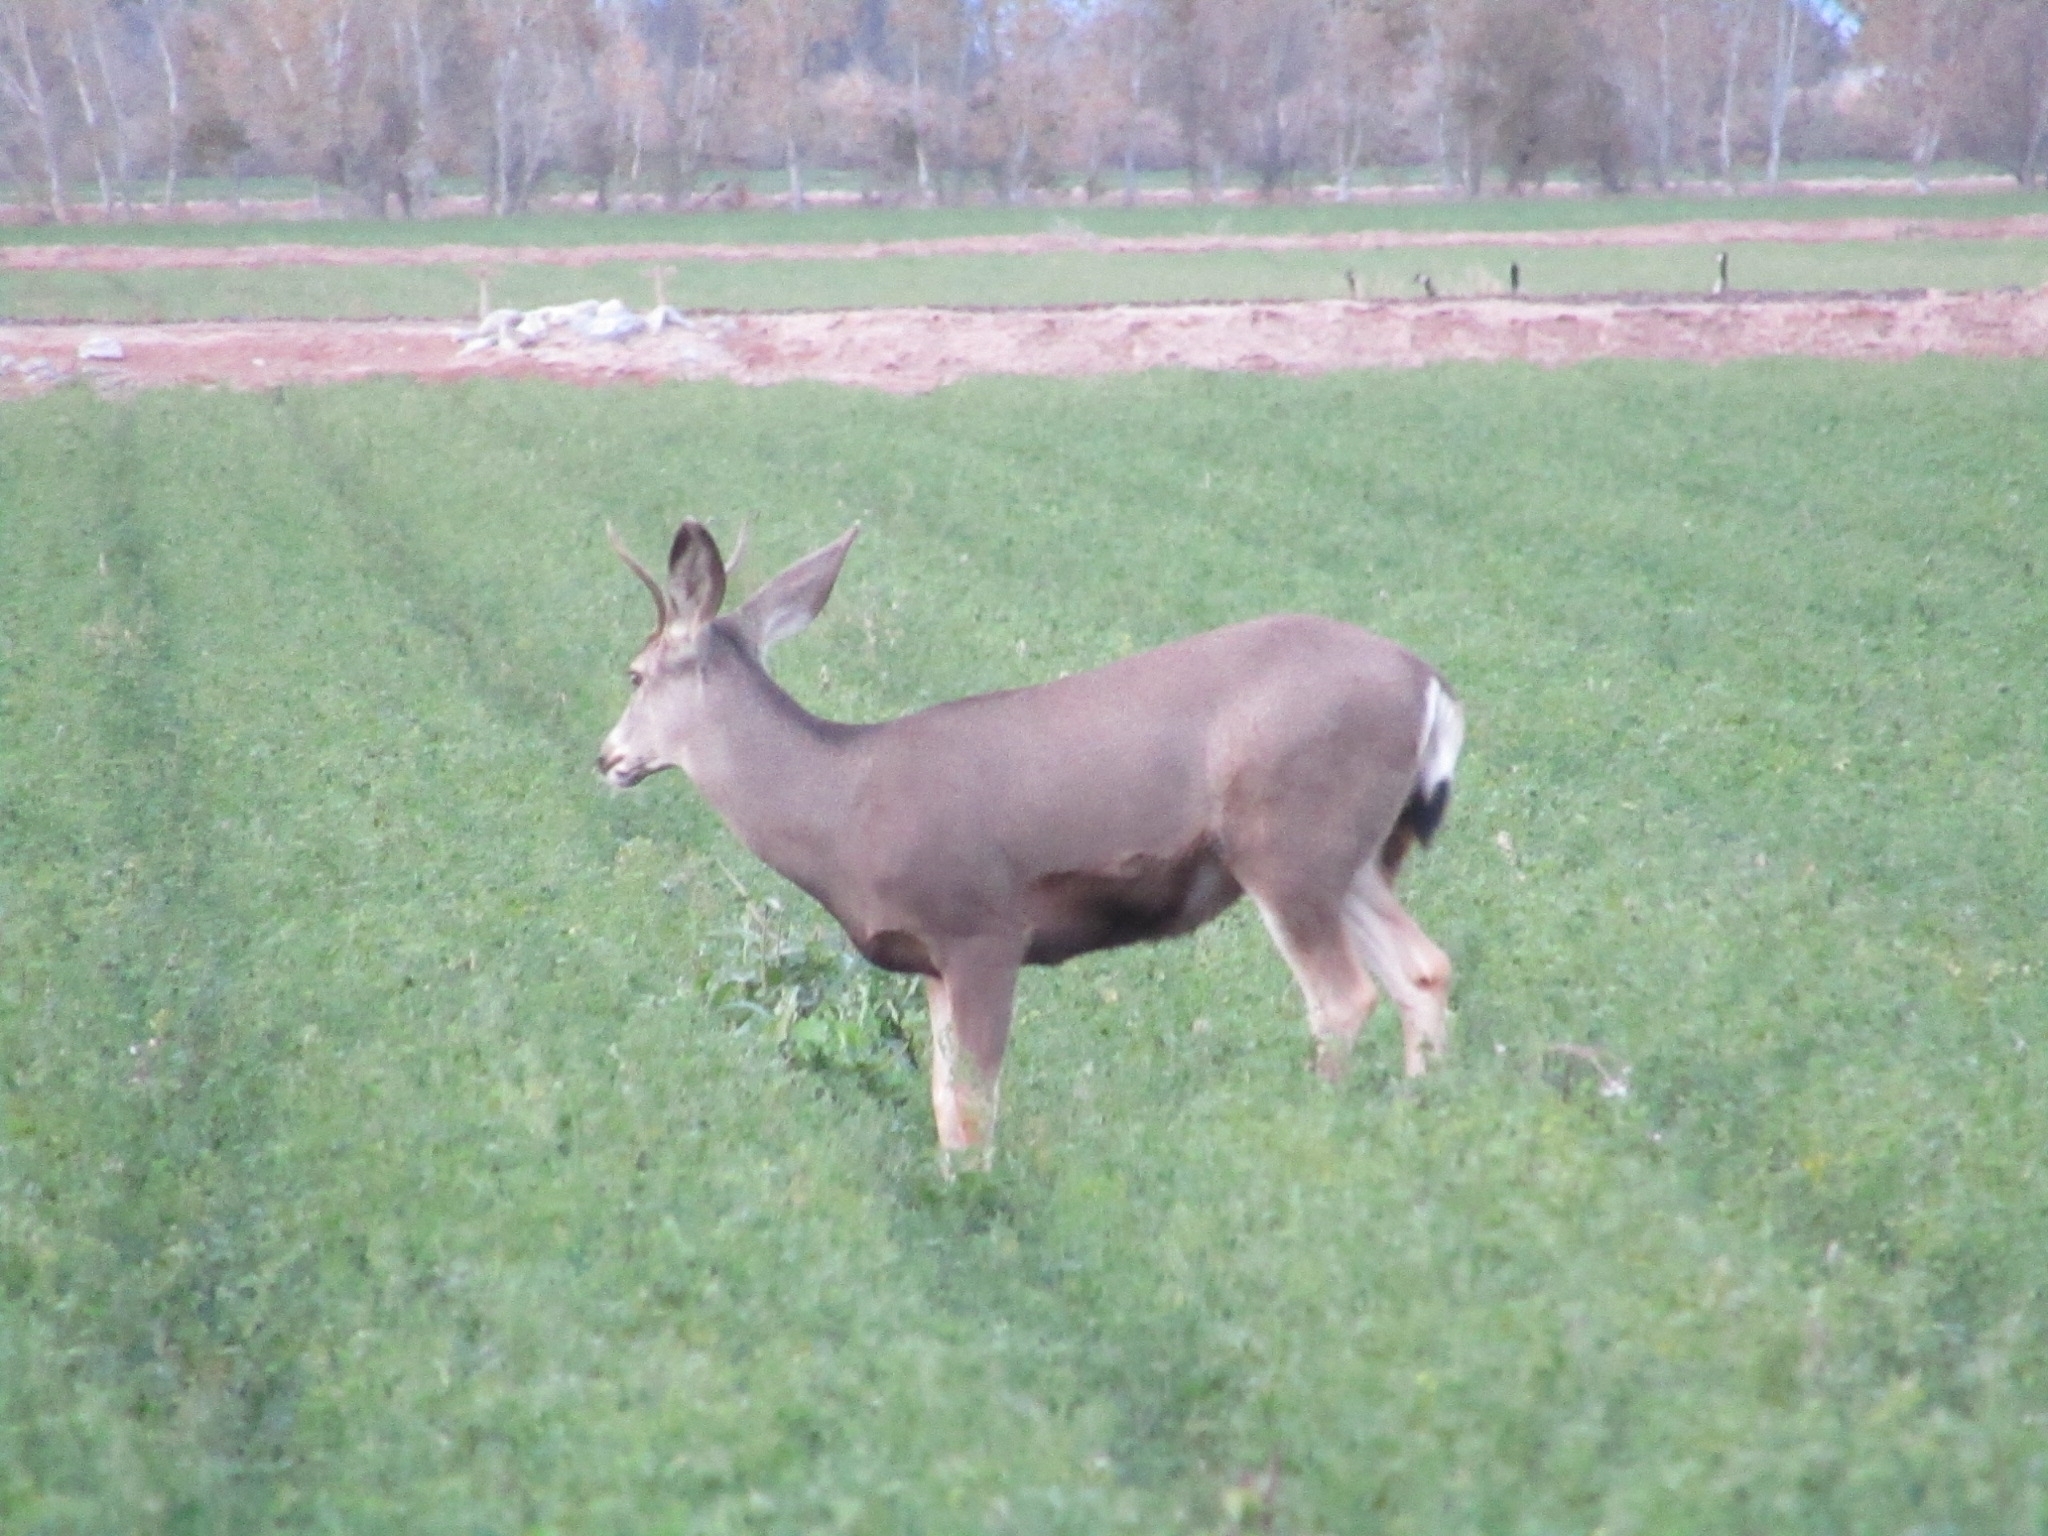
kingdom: Animalia
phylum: Chordata
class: Mammalia
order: Artiodactyla
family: Cervidae
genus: Odocoileus
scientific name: Odocoileus hemionus
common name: Mule deer
